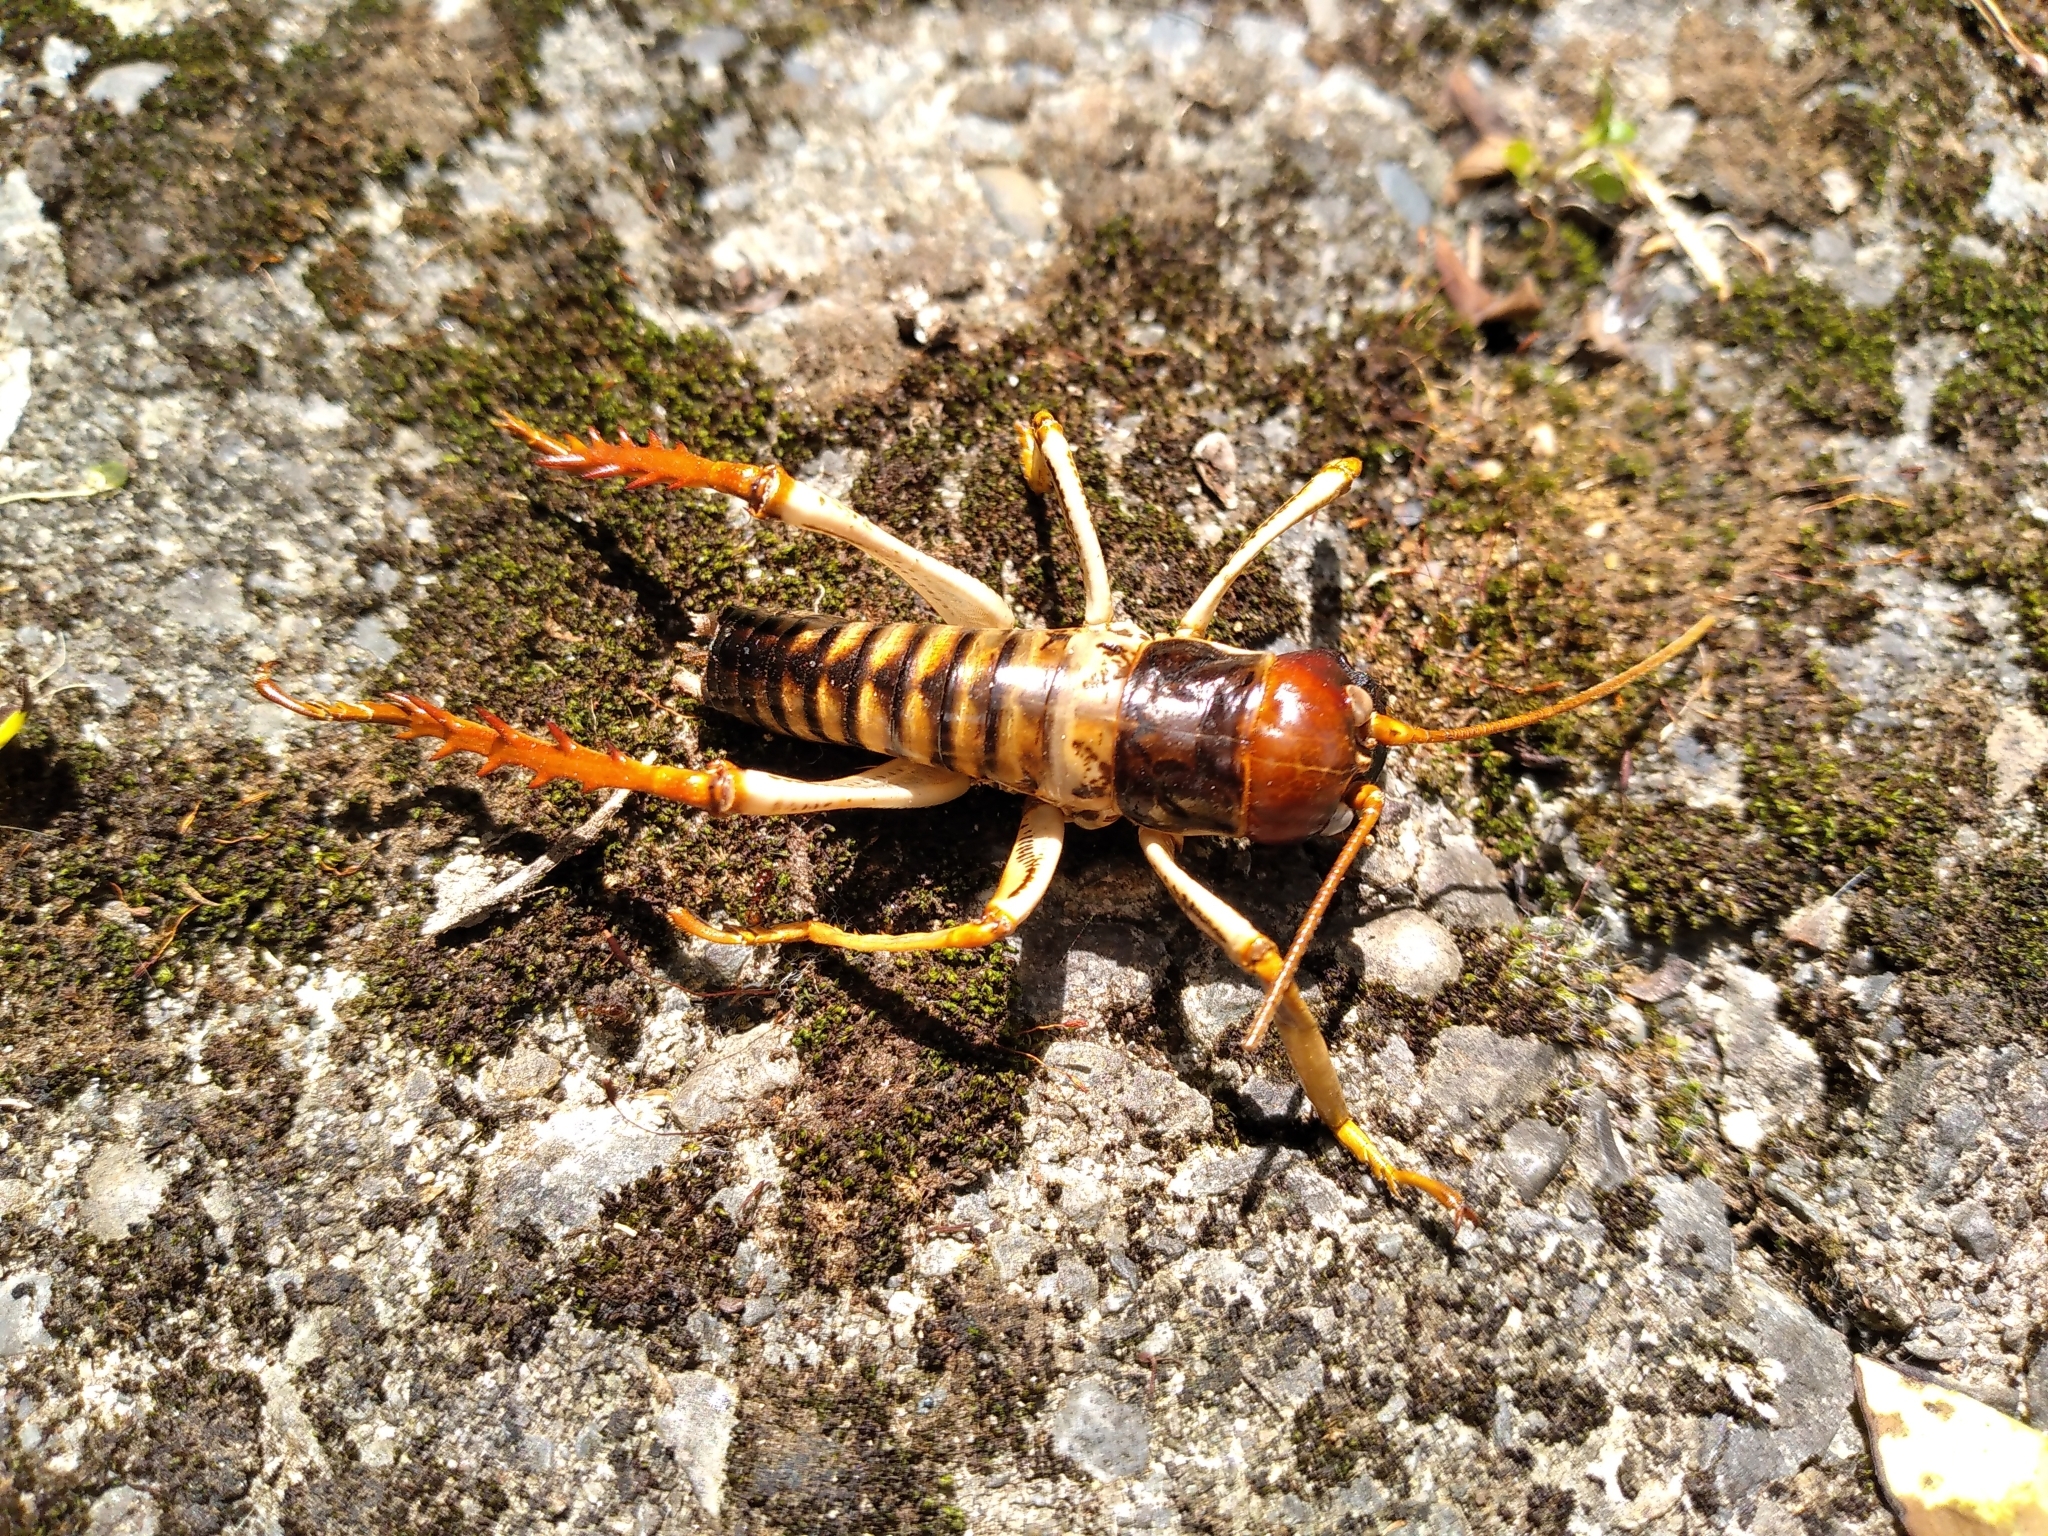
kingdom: Animalia
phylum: Arthropoda
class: Insecta
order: Orthoptera
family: Anostostomatidae
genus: Hemideina
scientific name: Hemideina crassidens
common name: Wellington tree weta
